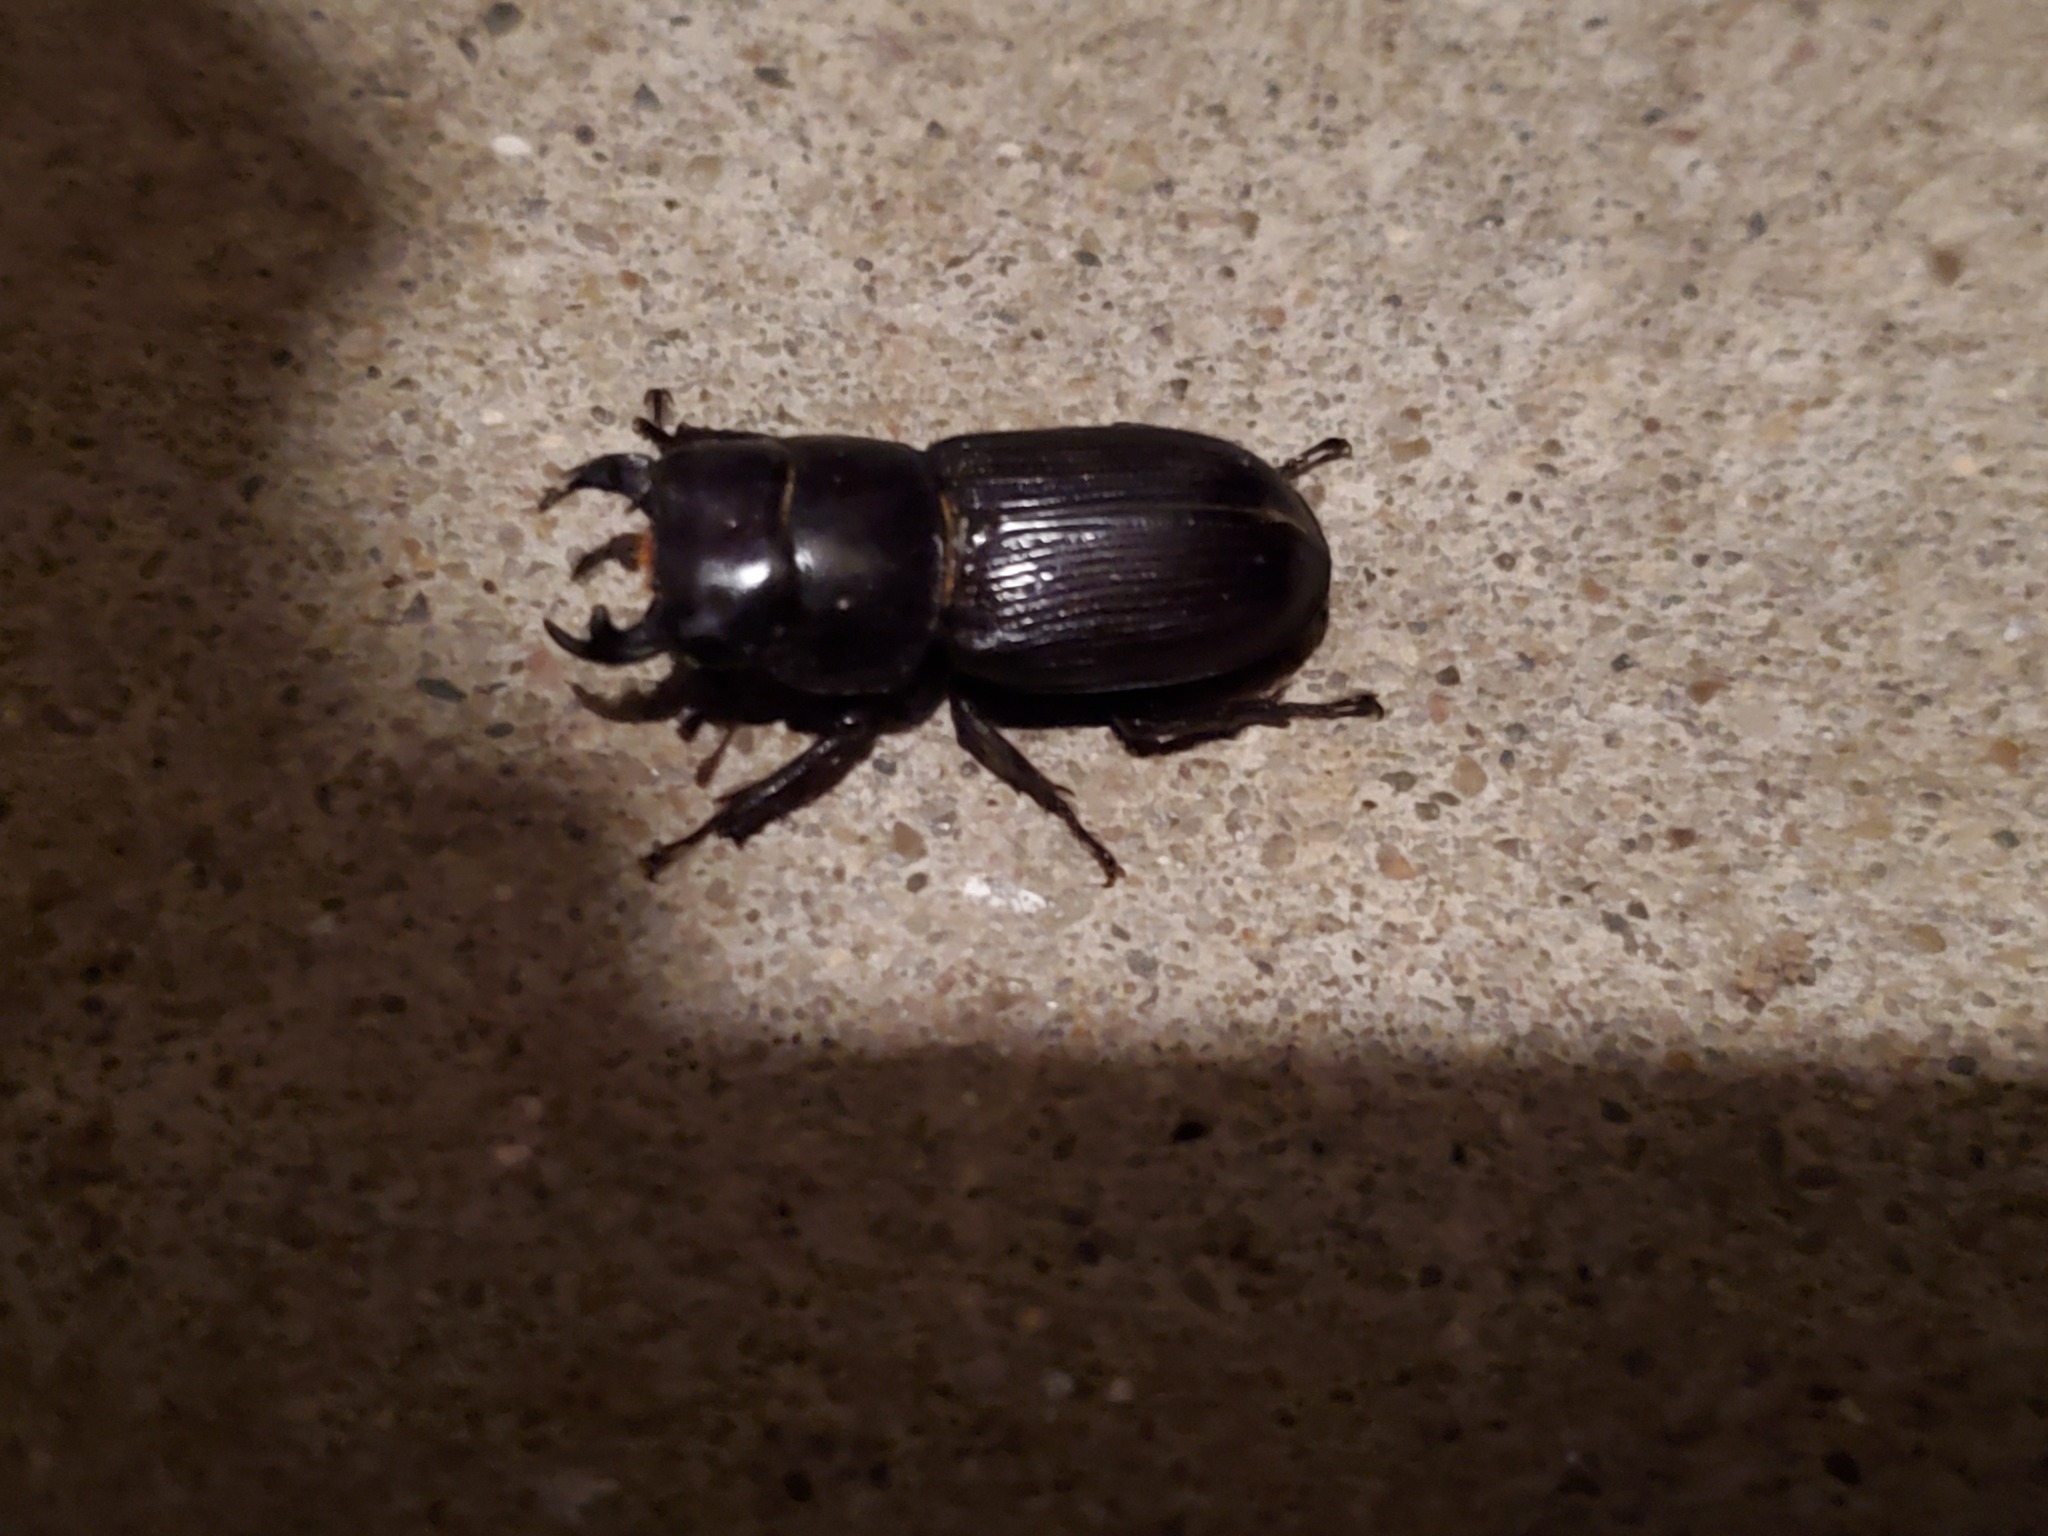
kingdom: Animalia
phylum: Arthropoda
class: Insecta
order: Coleoptera
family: Lucanidae
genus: Dorcus
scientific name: Dorcus parallelus
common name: Antelope beetle
